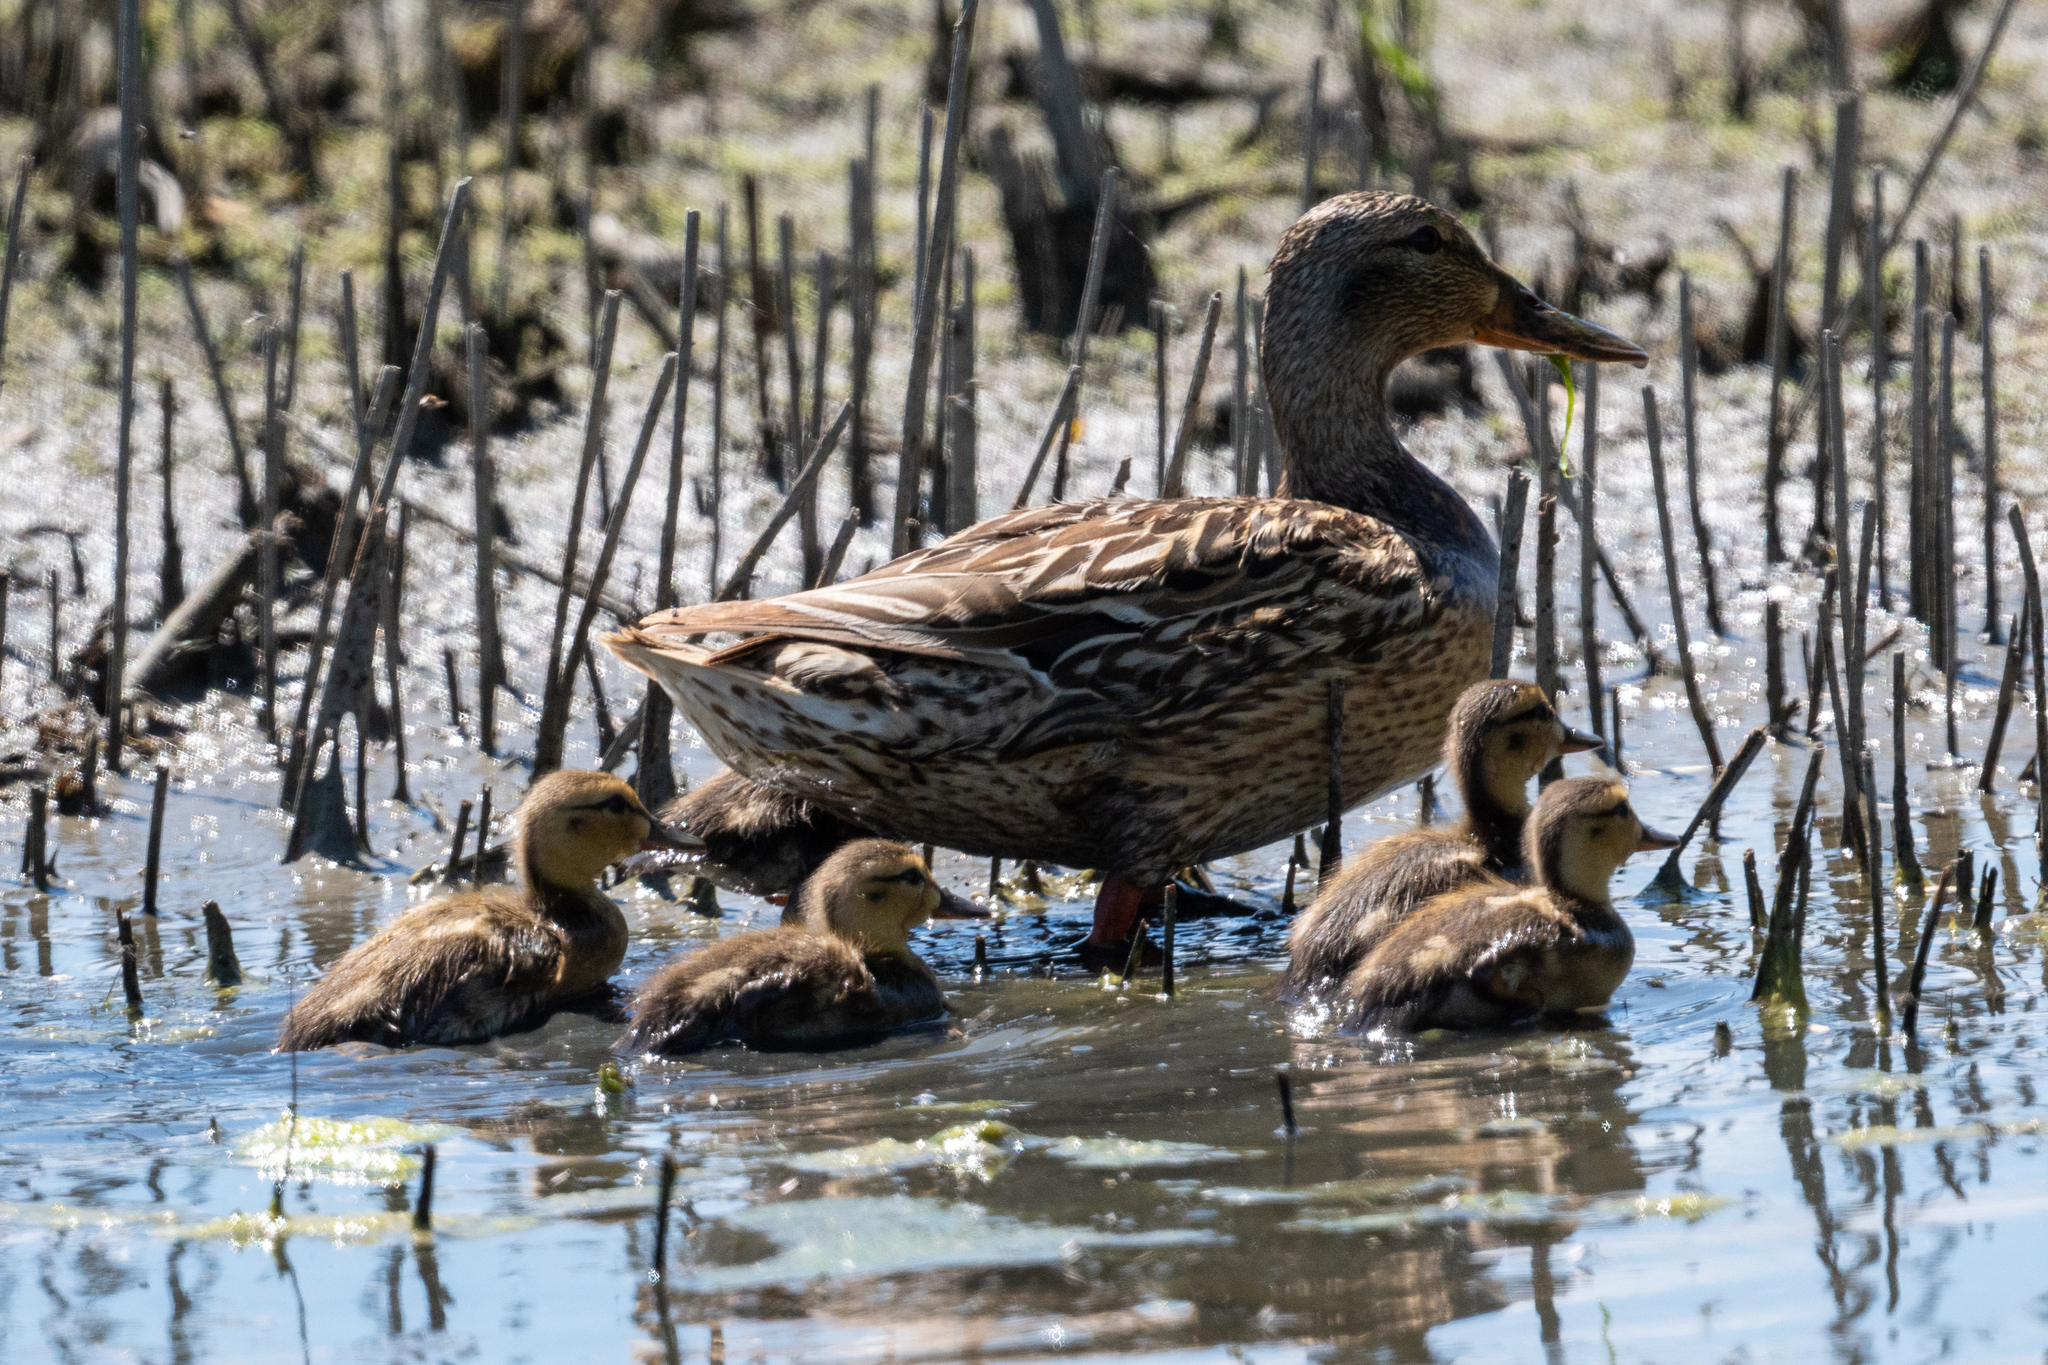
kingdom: Animalia
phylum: Chordata
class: Aves
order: Anseriformes
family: Anatidae
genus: Anas
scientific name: Anas platyrhynchos
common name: Mallard
